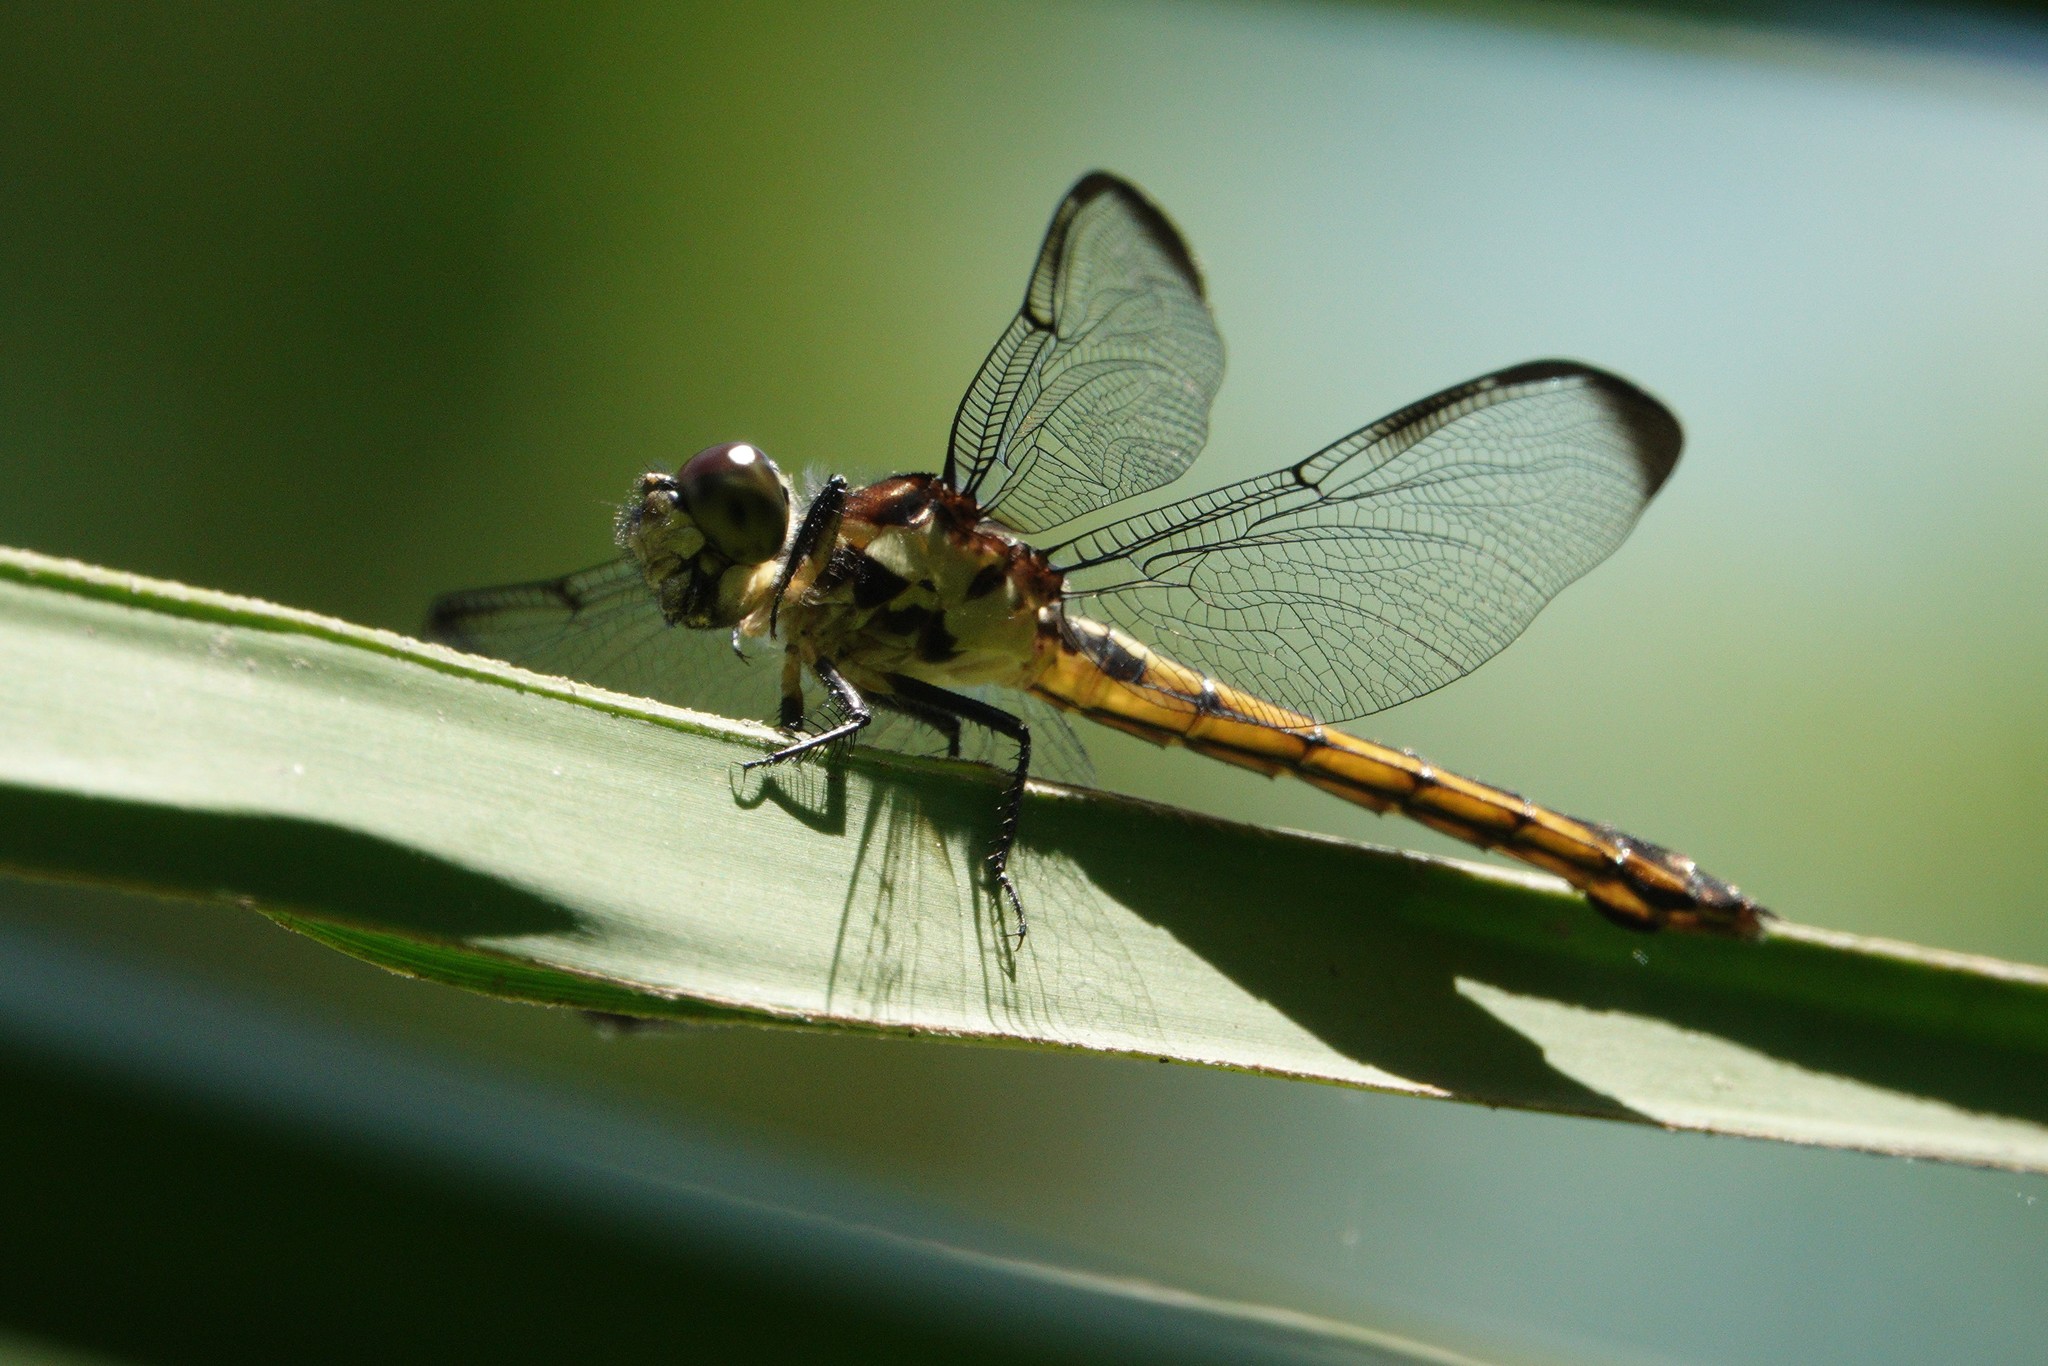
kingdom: Animalia
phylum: Arthropoda
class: Insecta
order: Odonata
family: Libellulidae
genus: Libellula
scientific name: Libellula incesta
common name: Slaty skimmer
